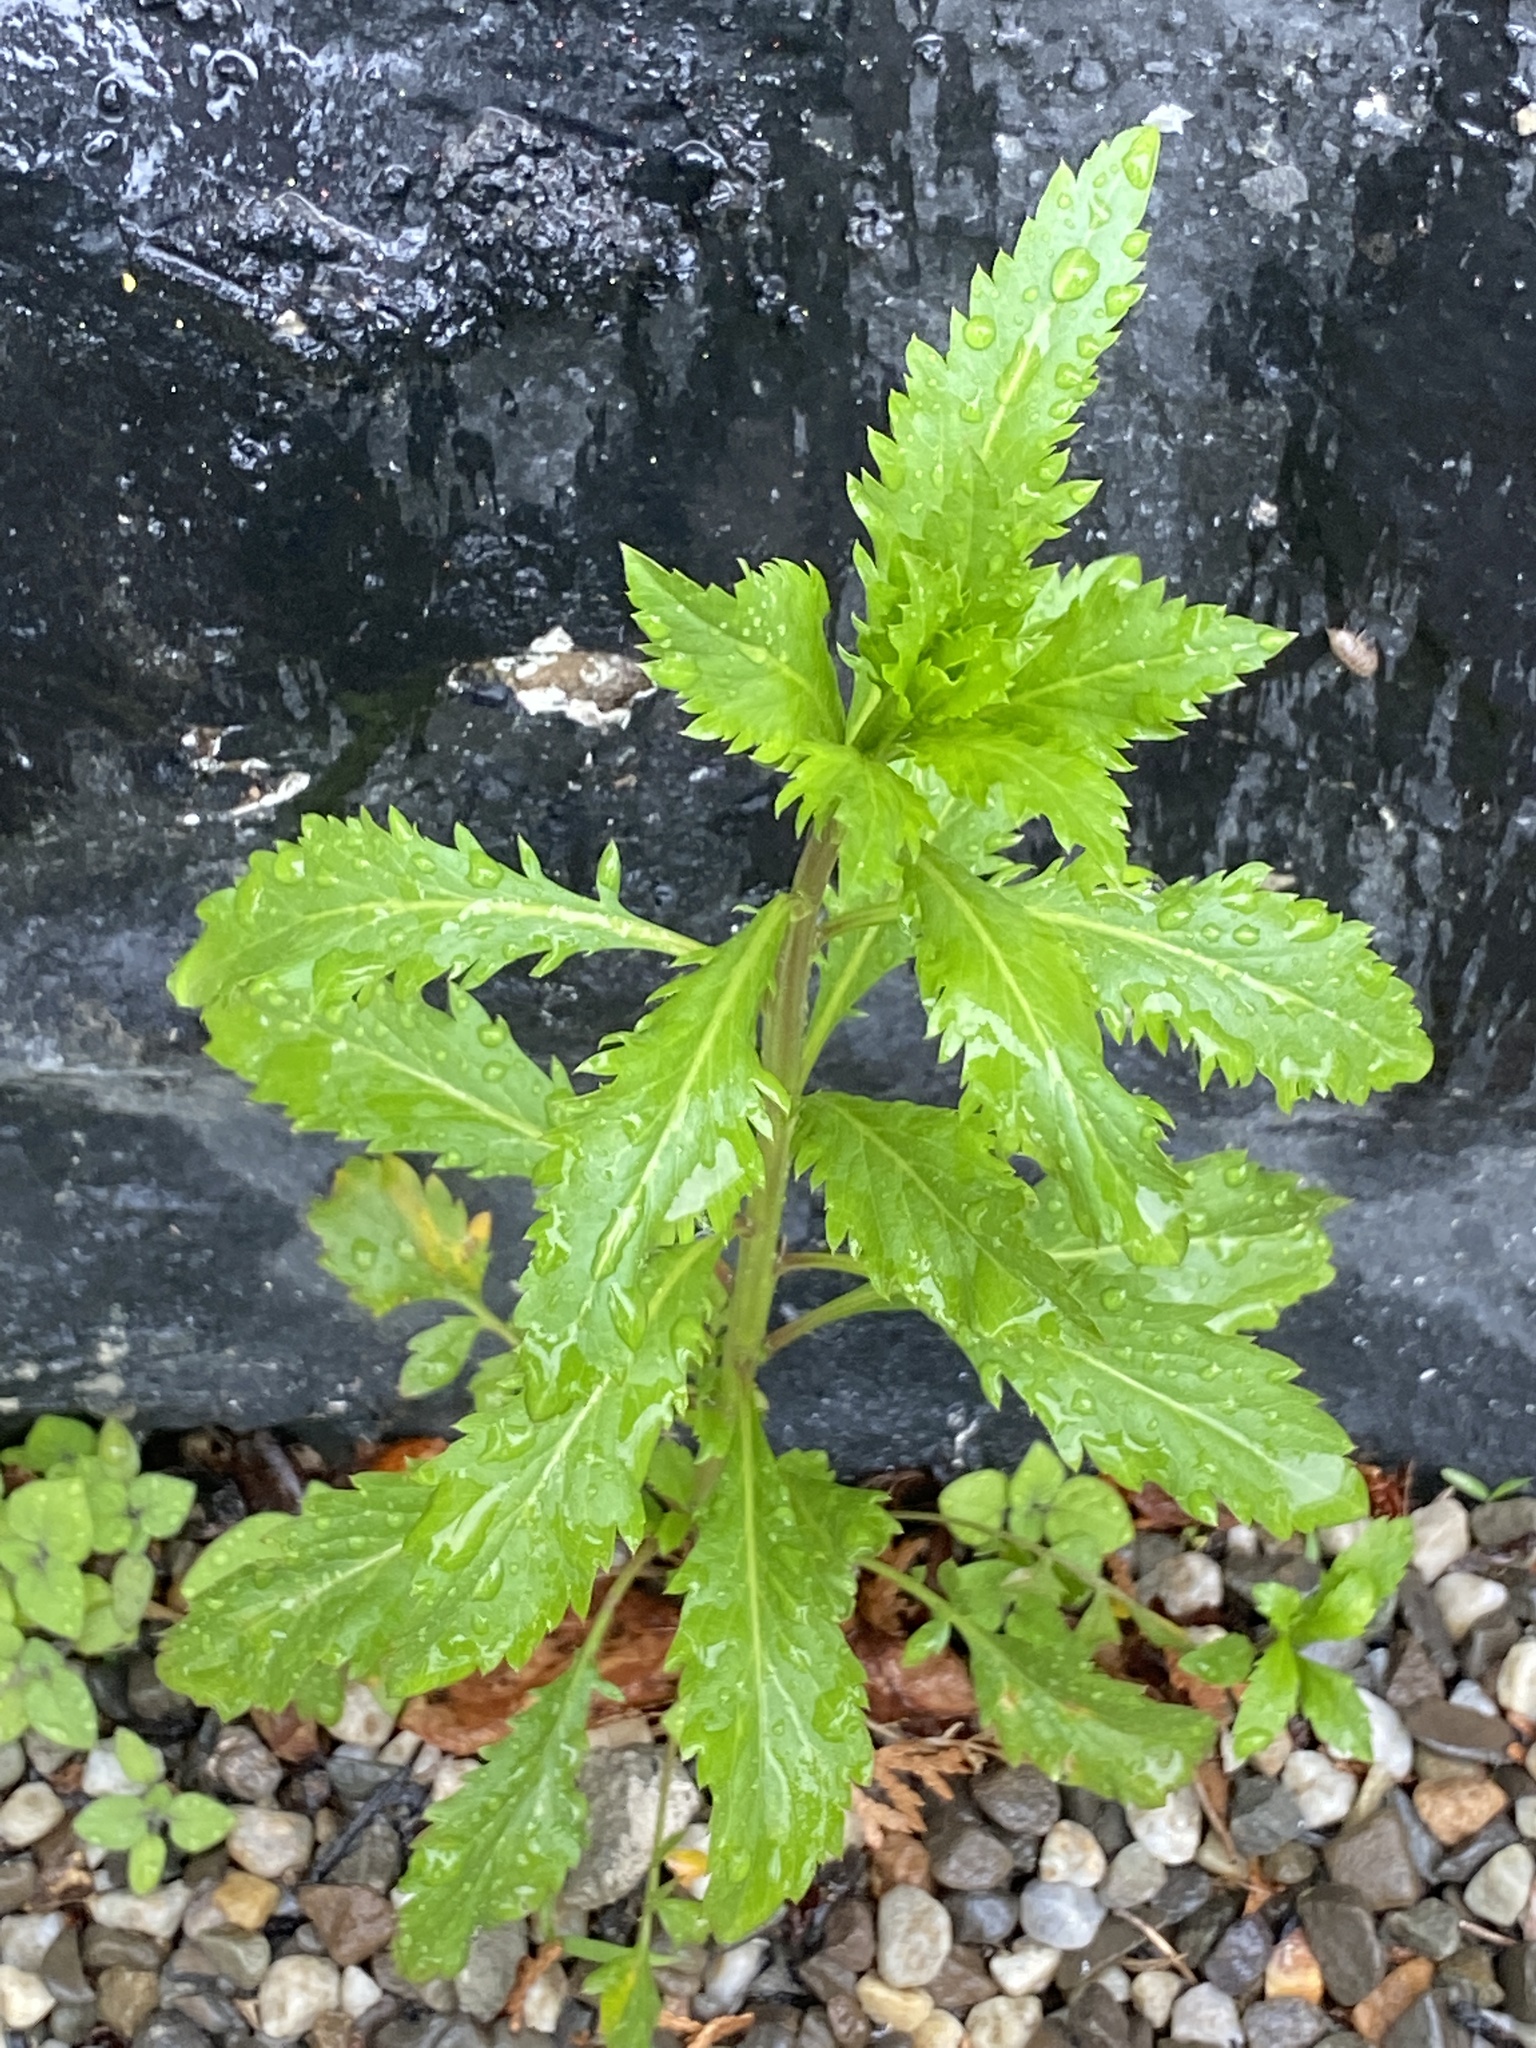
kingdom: Plantae
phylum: Tracheophyta
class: Magnoliopsida
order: Caryophyllales
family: Amaranthaceae
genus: Dysphania
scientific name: Dysphania ambrosioides
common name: Wormseed
